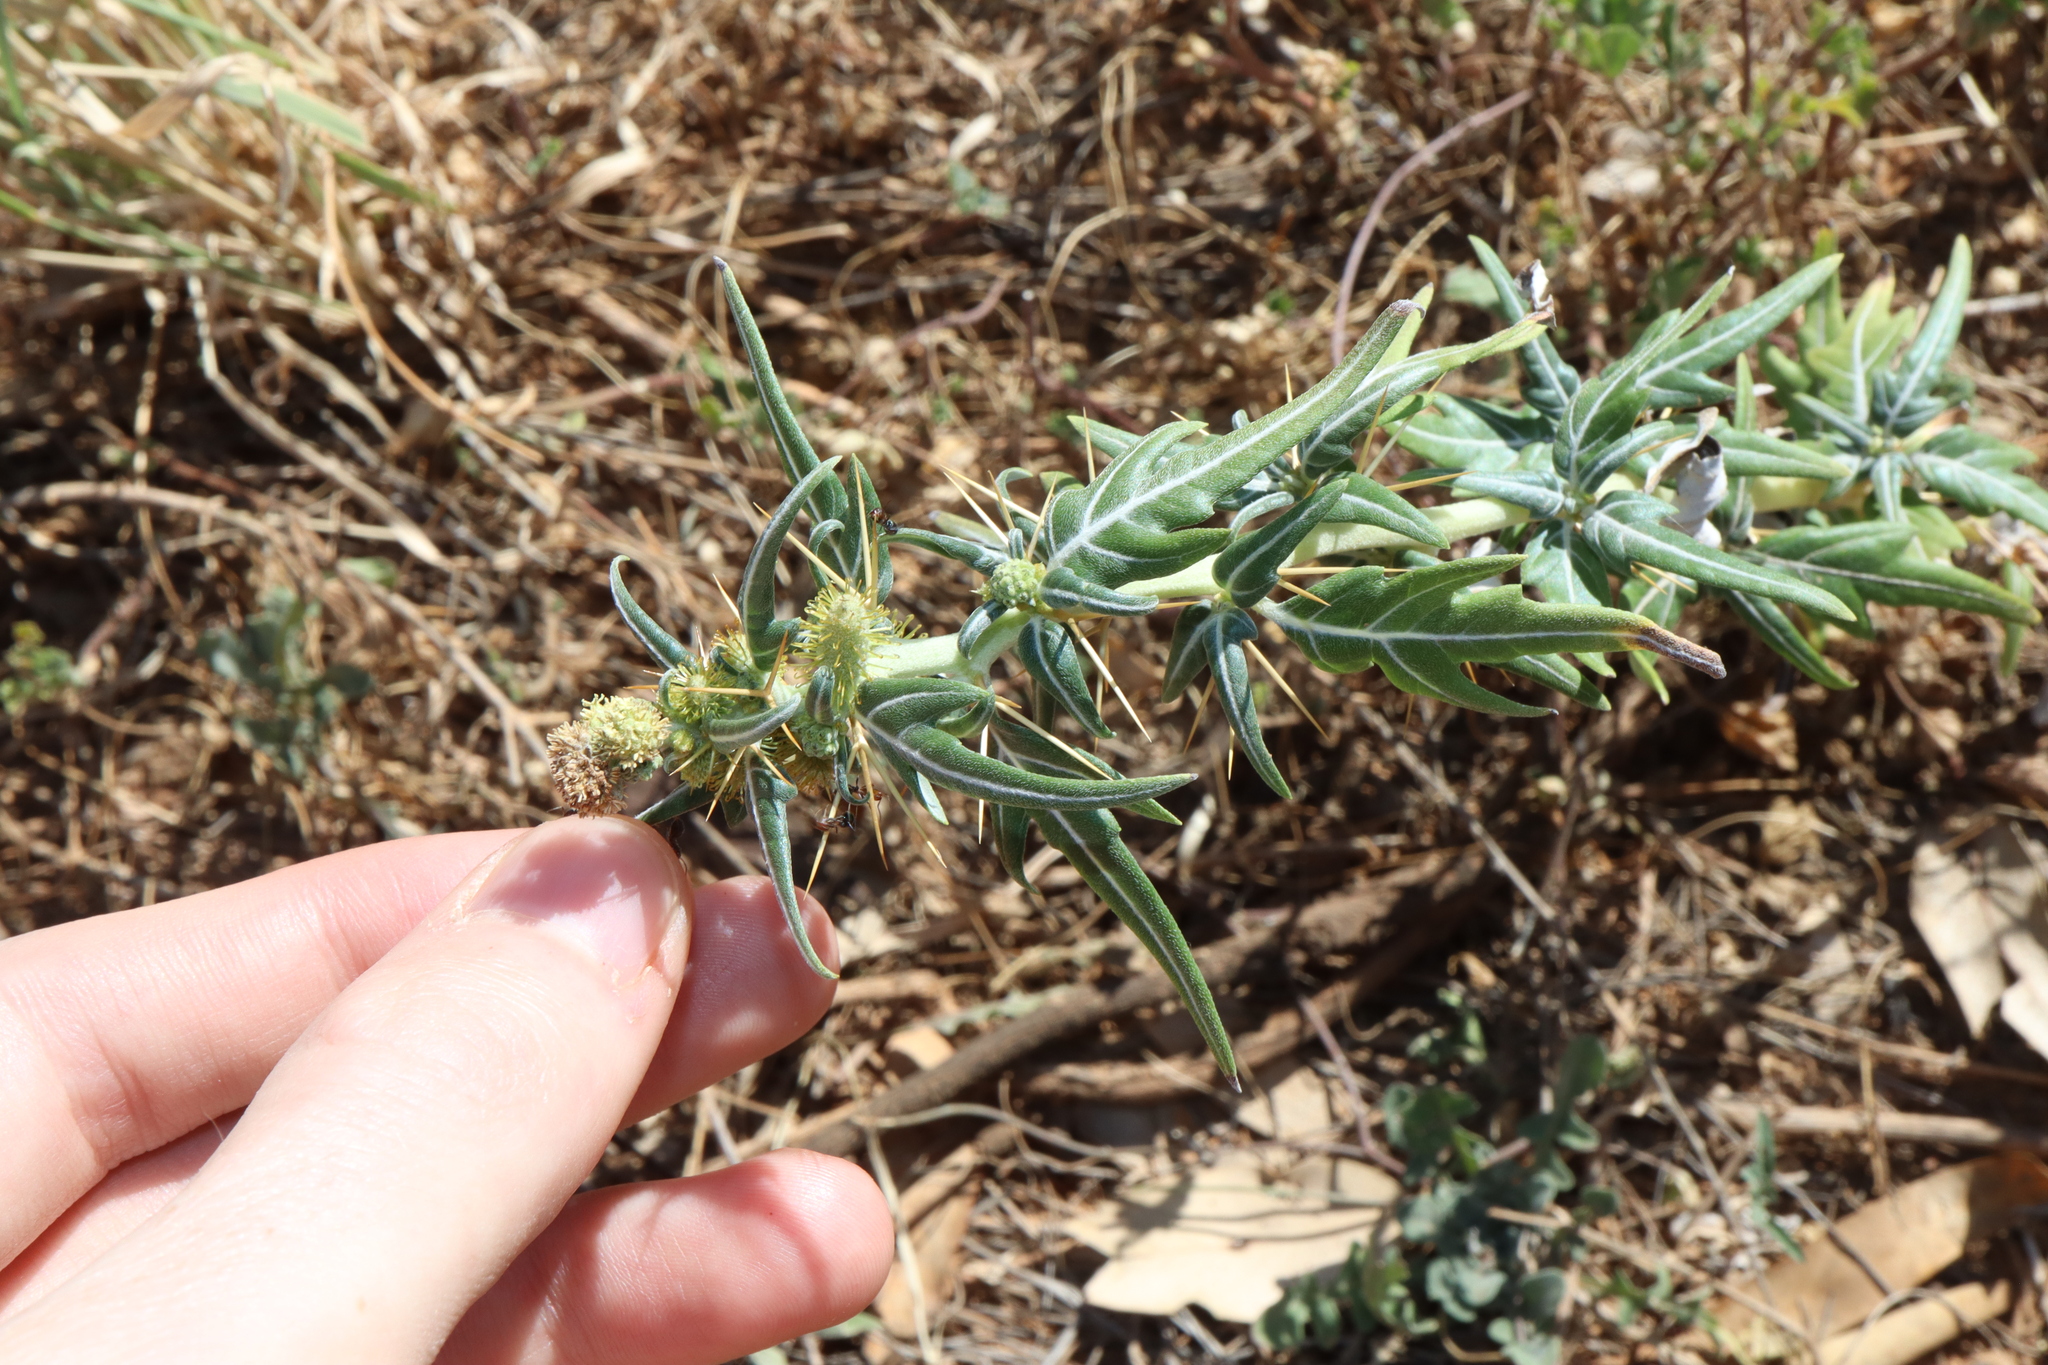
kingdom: Plantae
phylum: Tracheophyta
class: Magnoliopsida
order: Asterales
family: Asteraceae
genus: Xanthium
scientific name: Xanthium spinosum
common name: Spiny cocklebur
